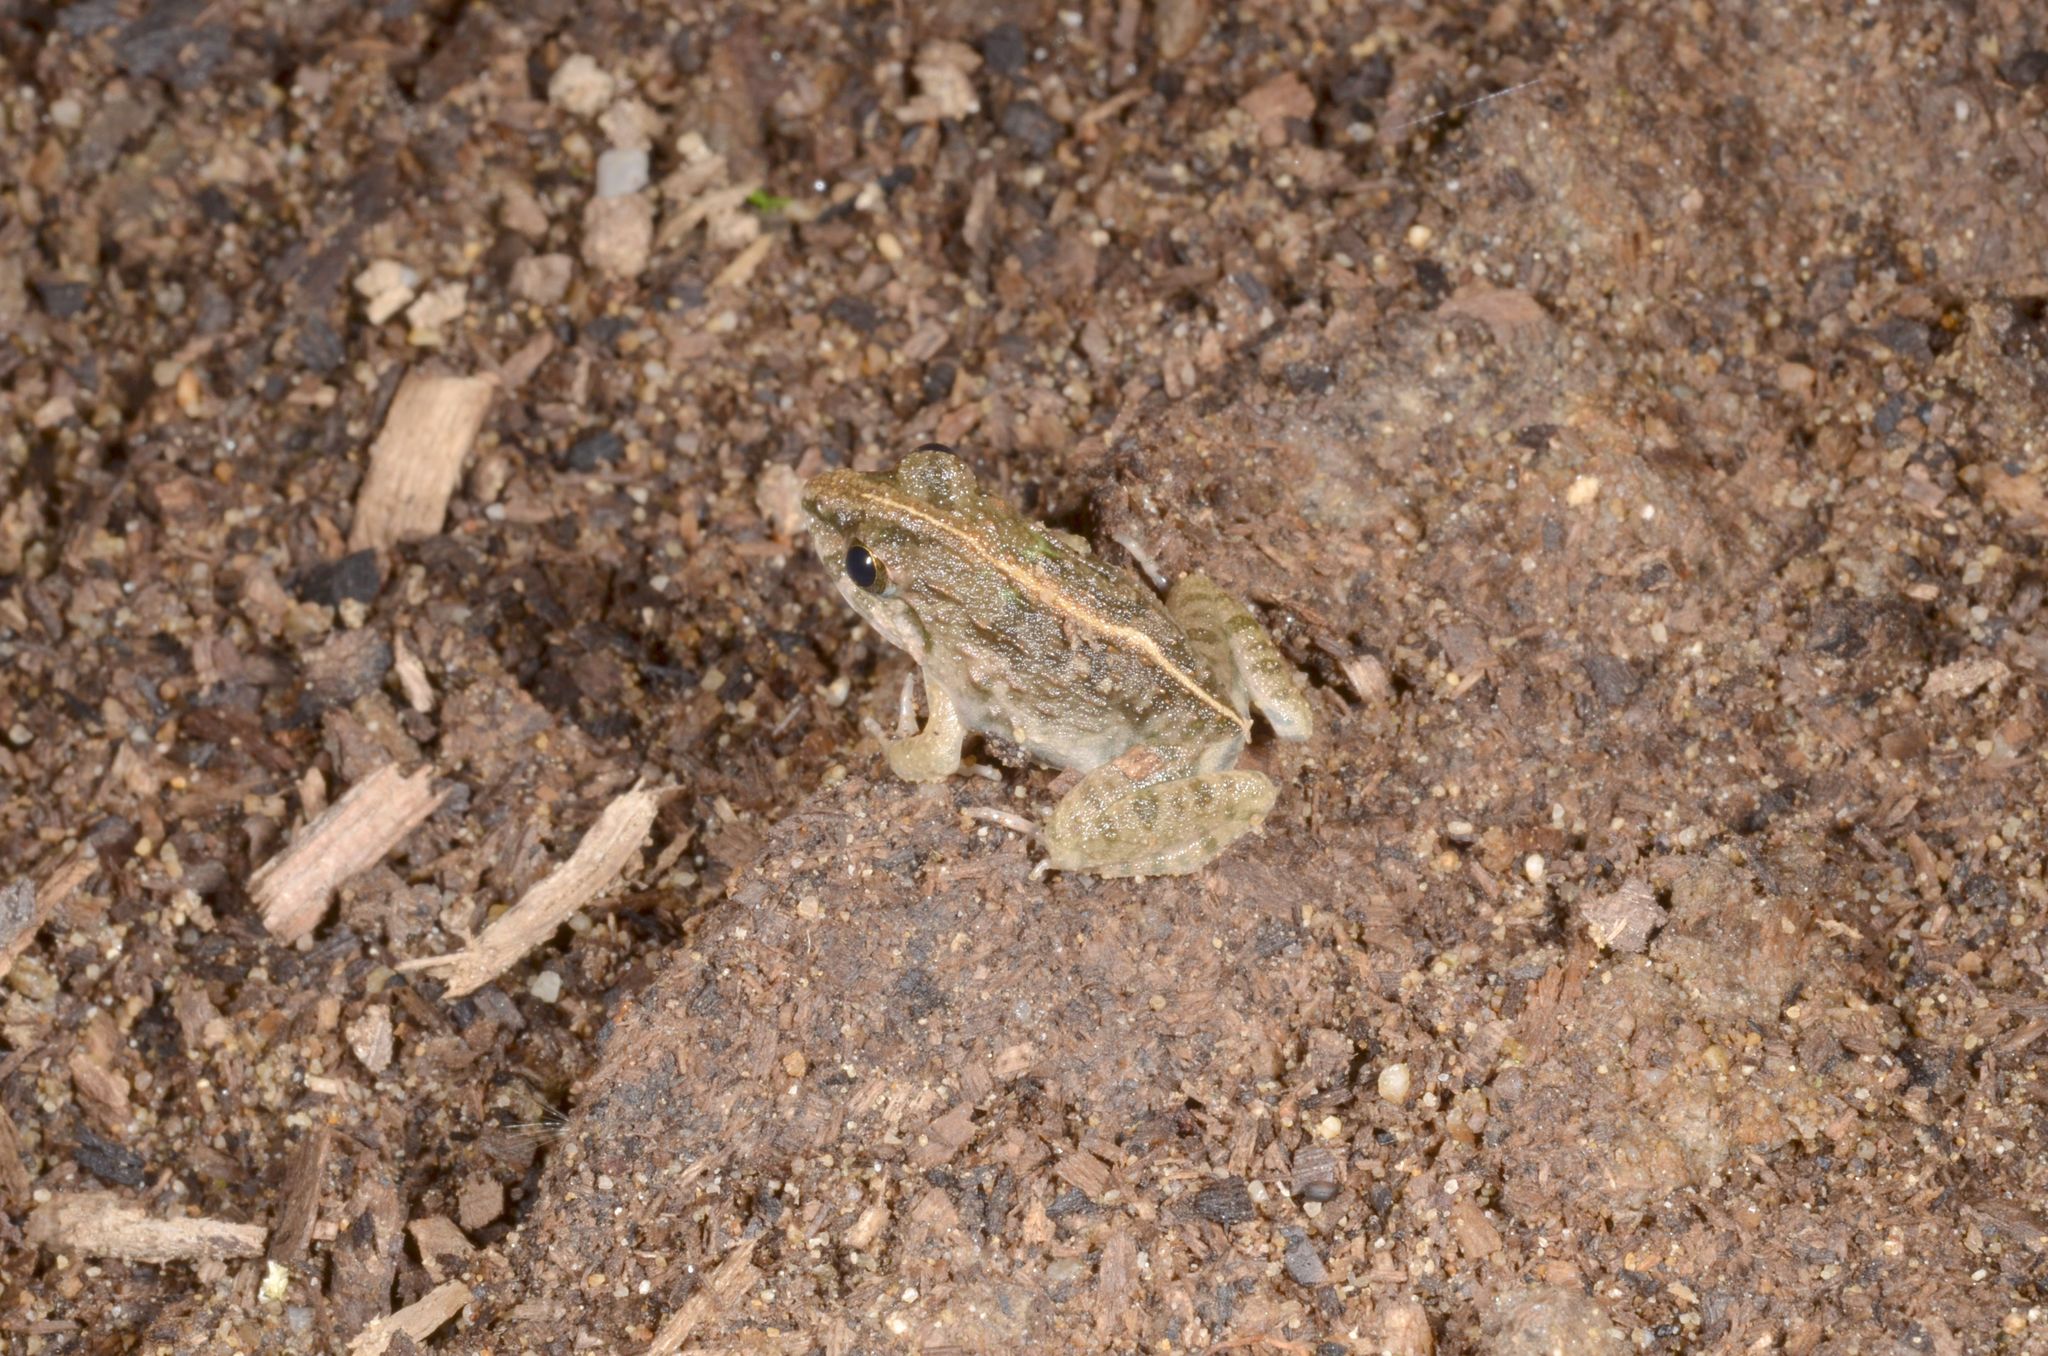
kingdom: Animalia
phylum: Chordata
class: Amphibia
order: Anura
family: Dicroglossidae
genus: Fejervarya
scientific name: Fejervarya limnocharis
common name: Asian grass frog/common pond frog/field frog/grass frog/indian rice frog
